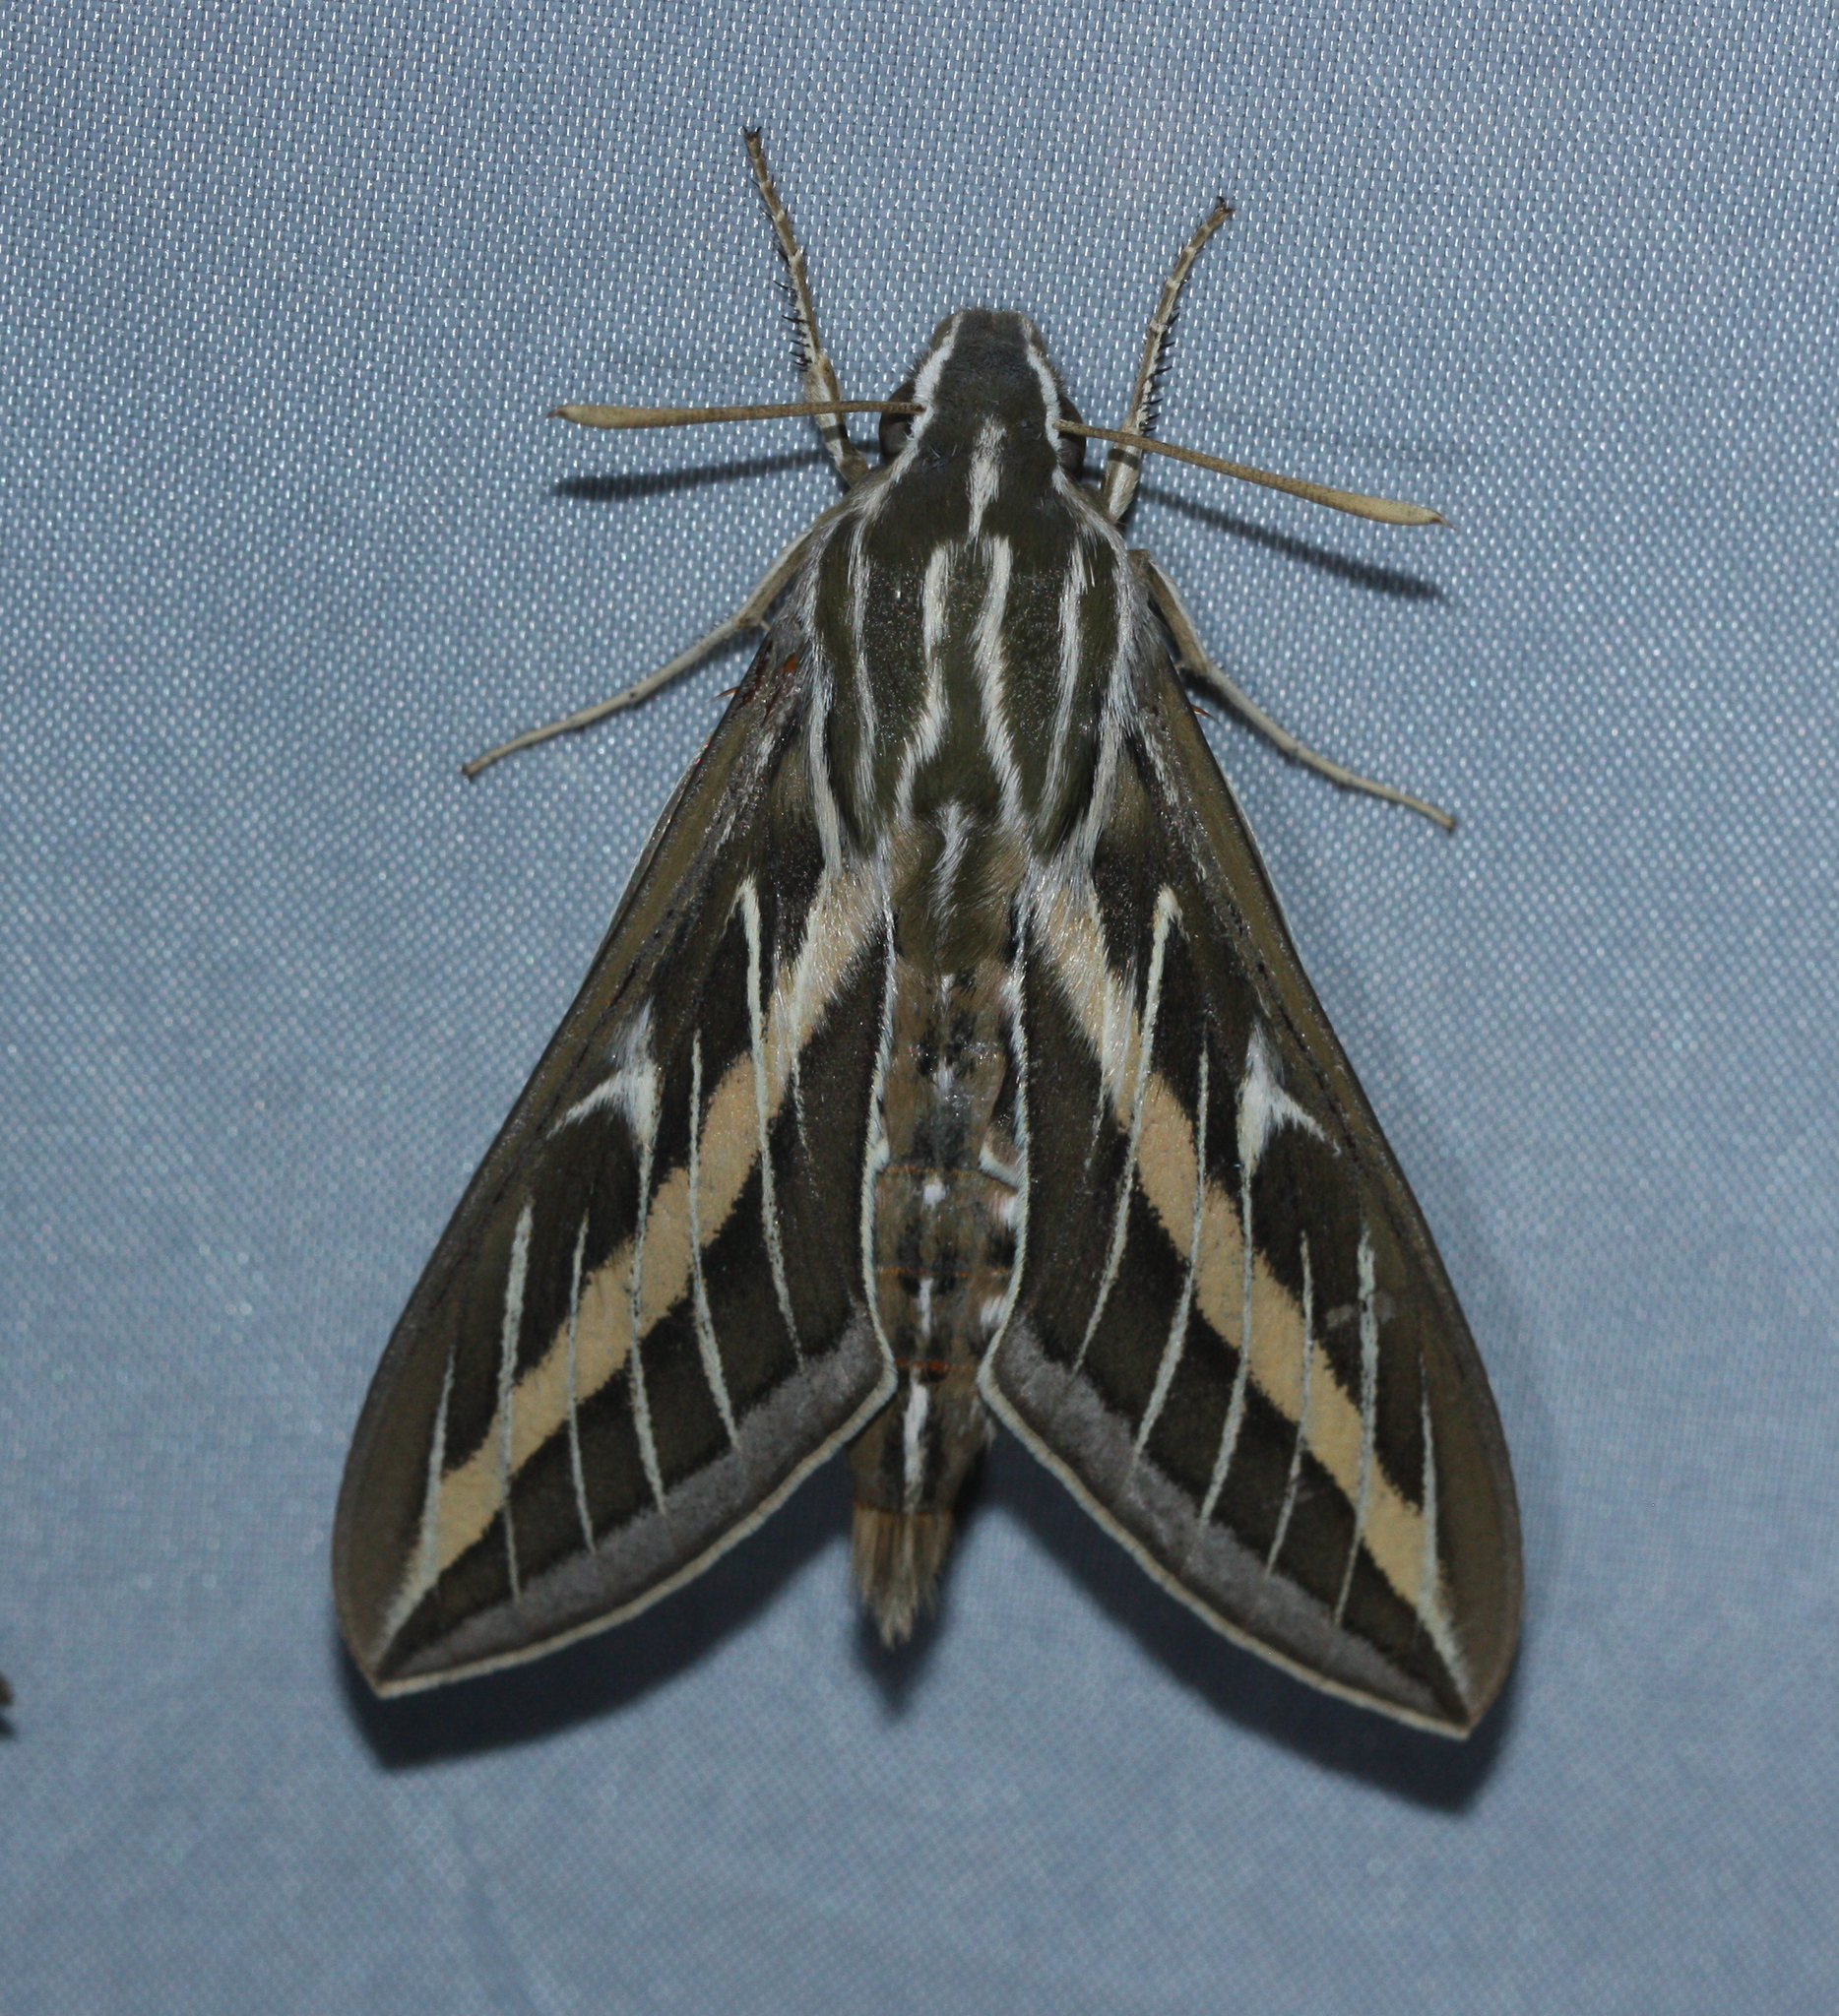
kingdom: Animalia
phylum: Arthropoda
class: Insecta
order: Lepidoptera
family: Sphingidae
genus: Hyles
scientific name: Hyles lineata
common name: White-lined sphinx
